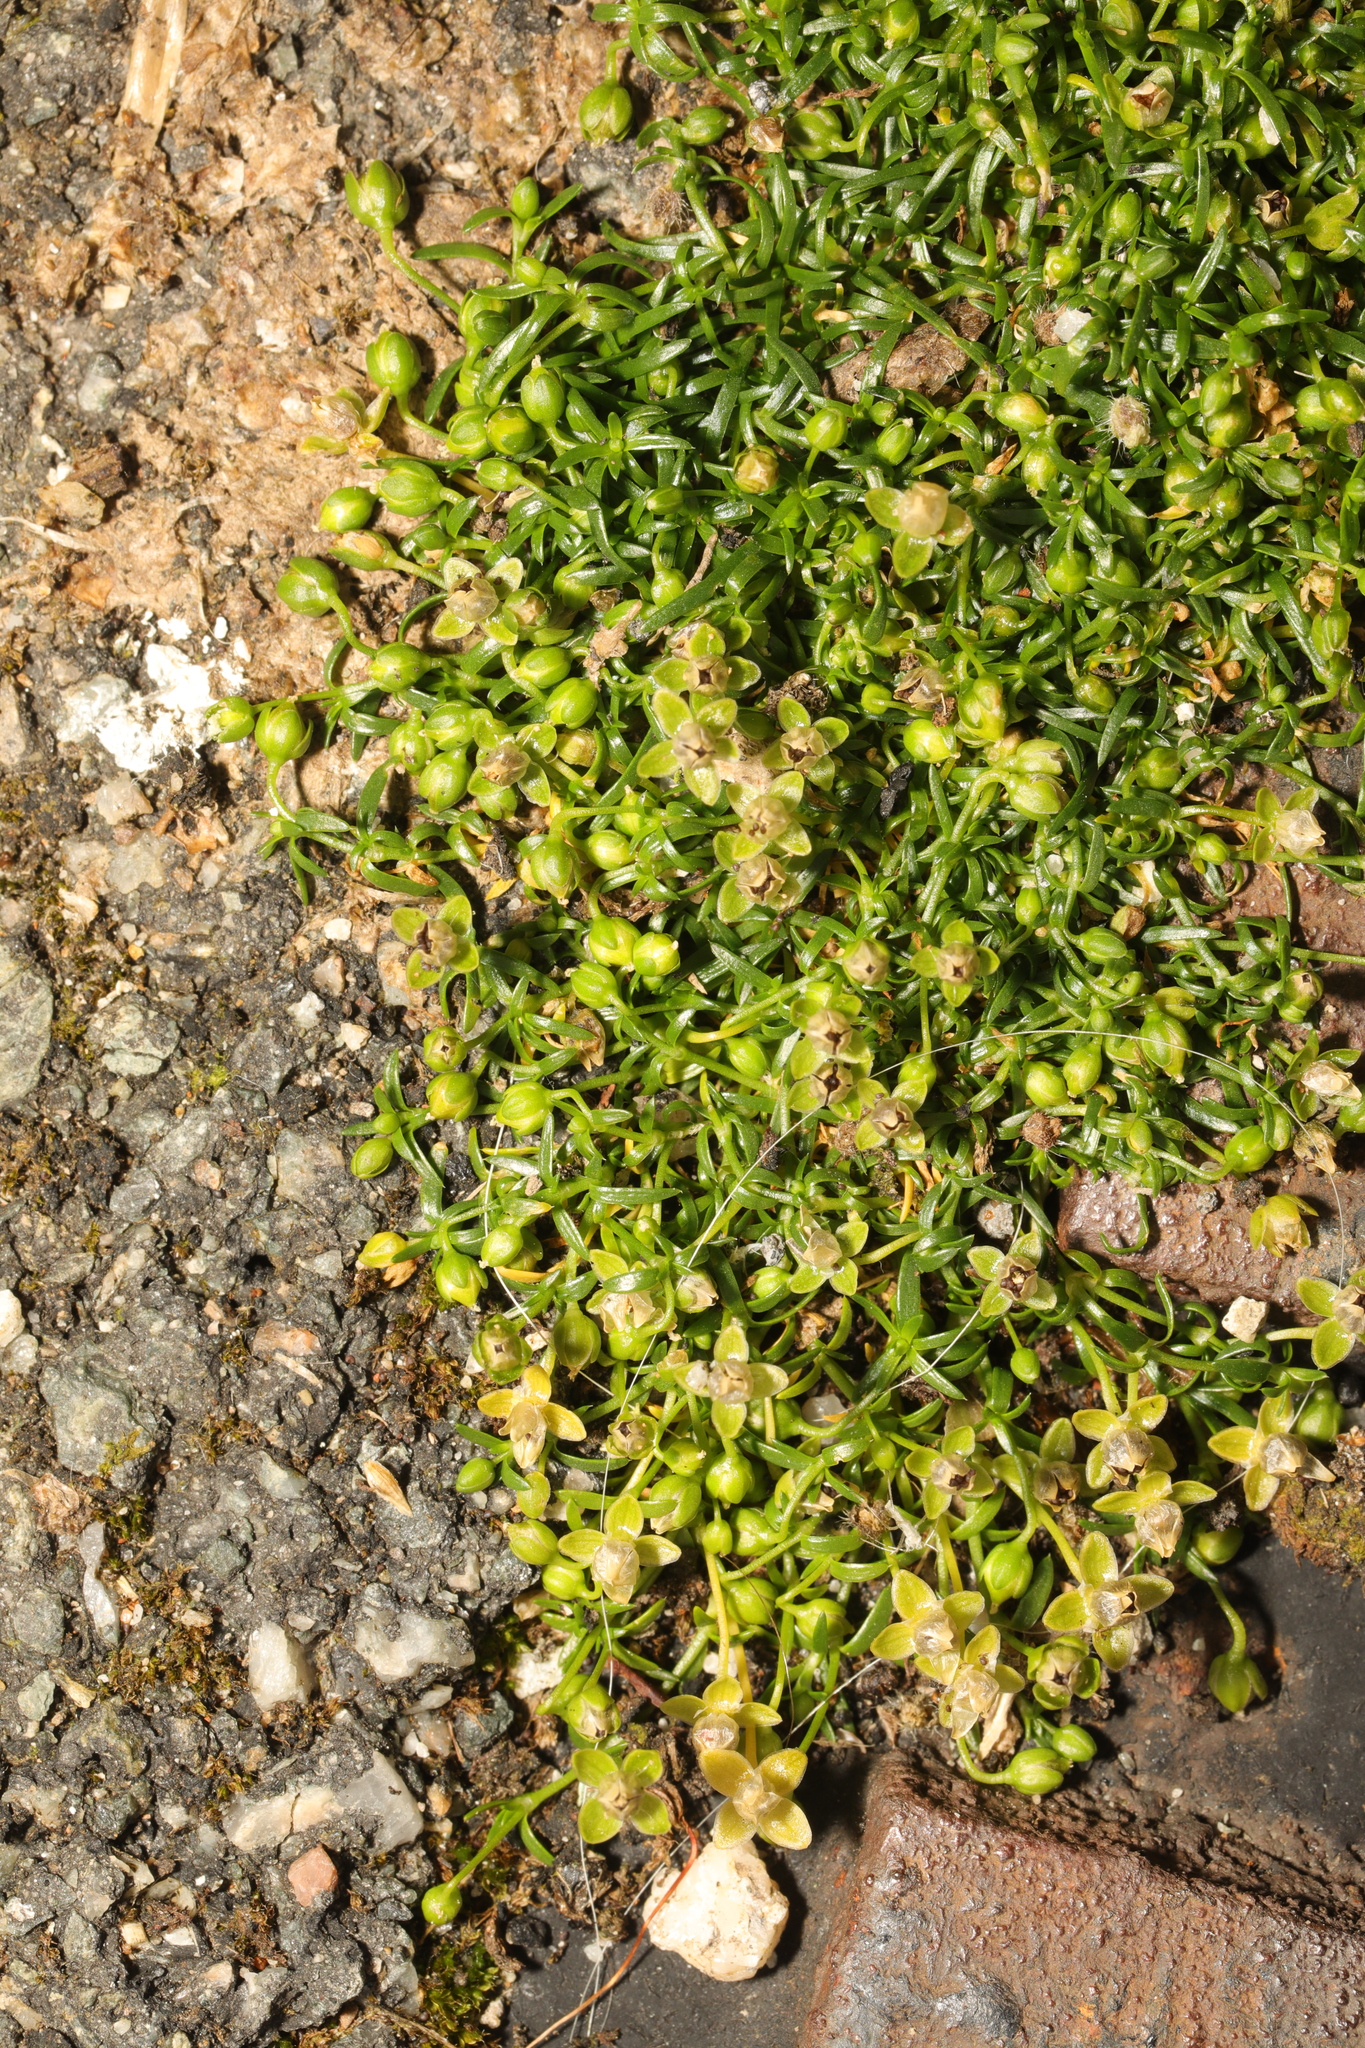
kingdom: Plantae
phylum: Tracheophyta
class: Magnoliopsida
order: Caryophyllales
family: Caryophyllaceae
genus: Sagina
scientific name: Sagina procumbens
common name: Procumbent pearlwort
